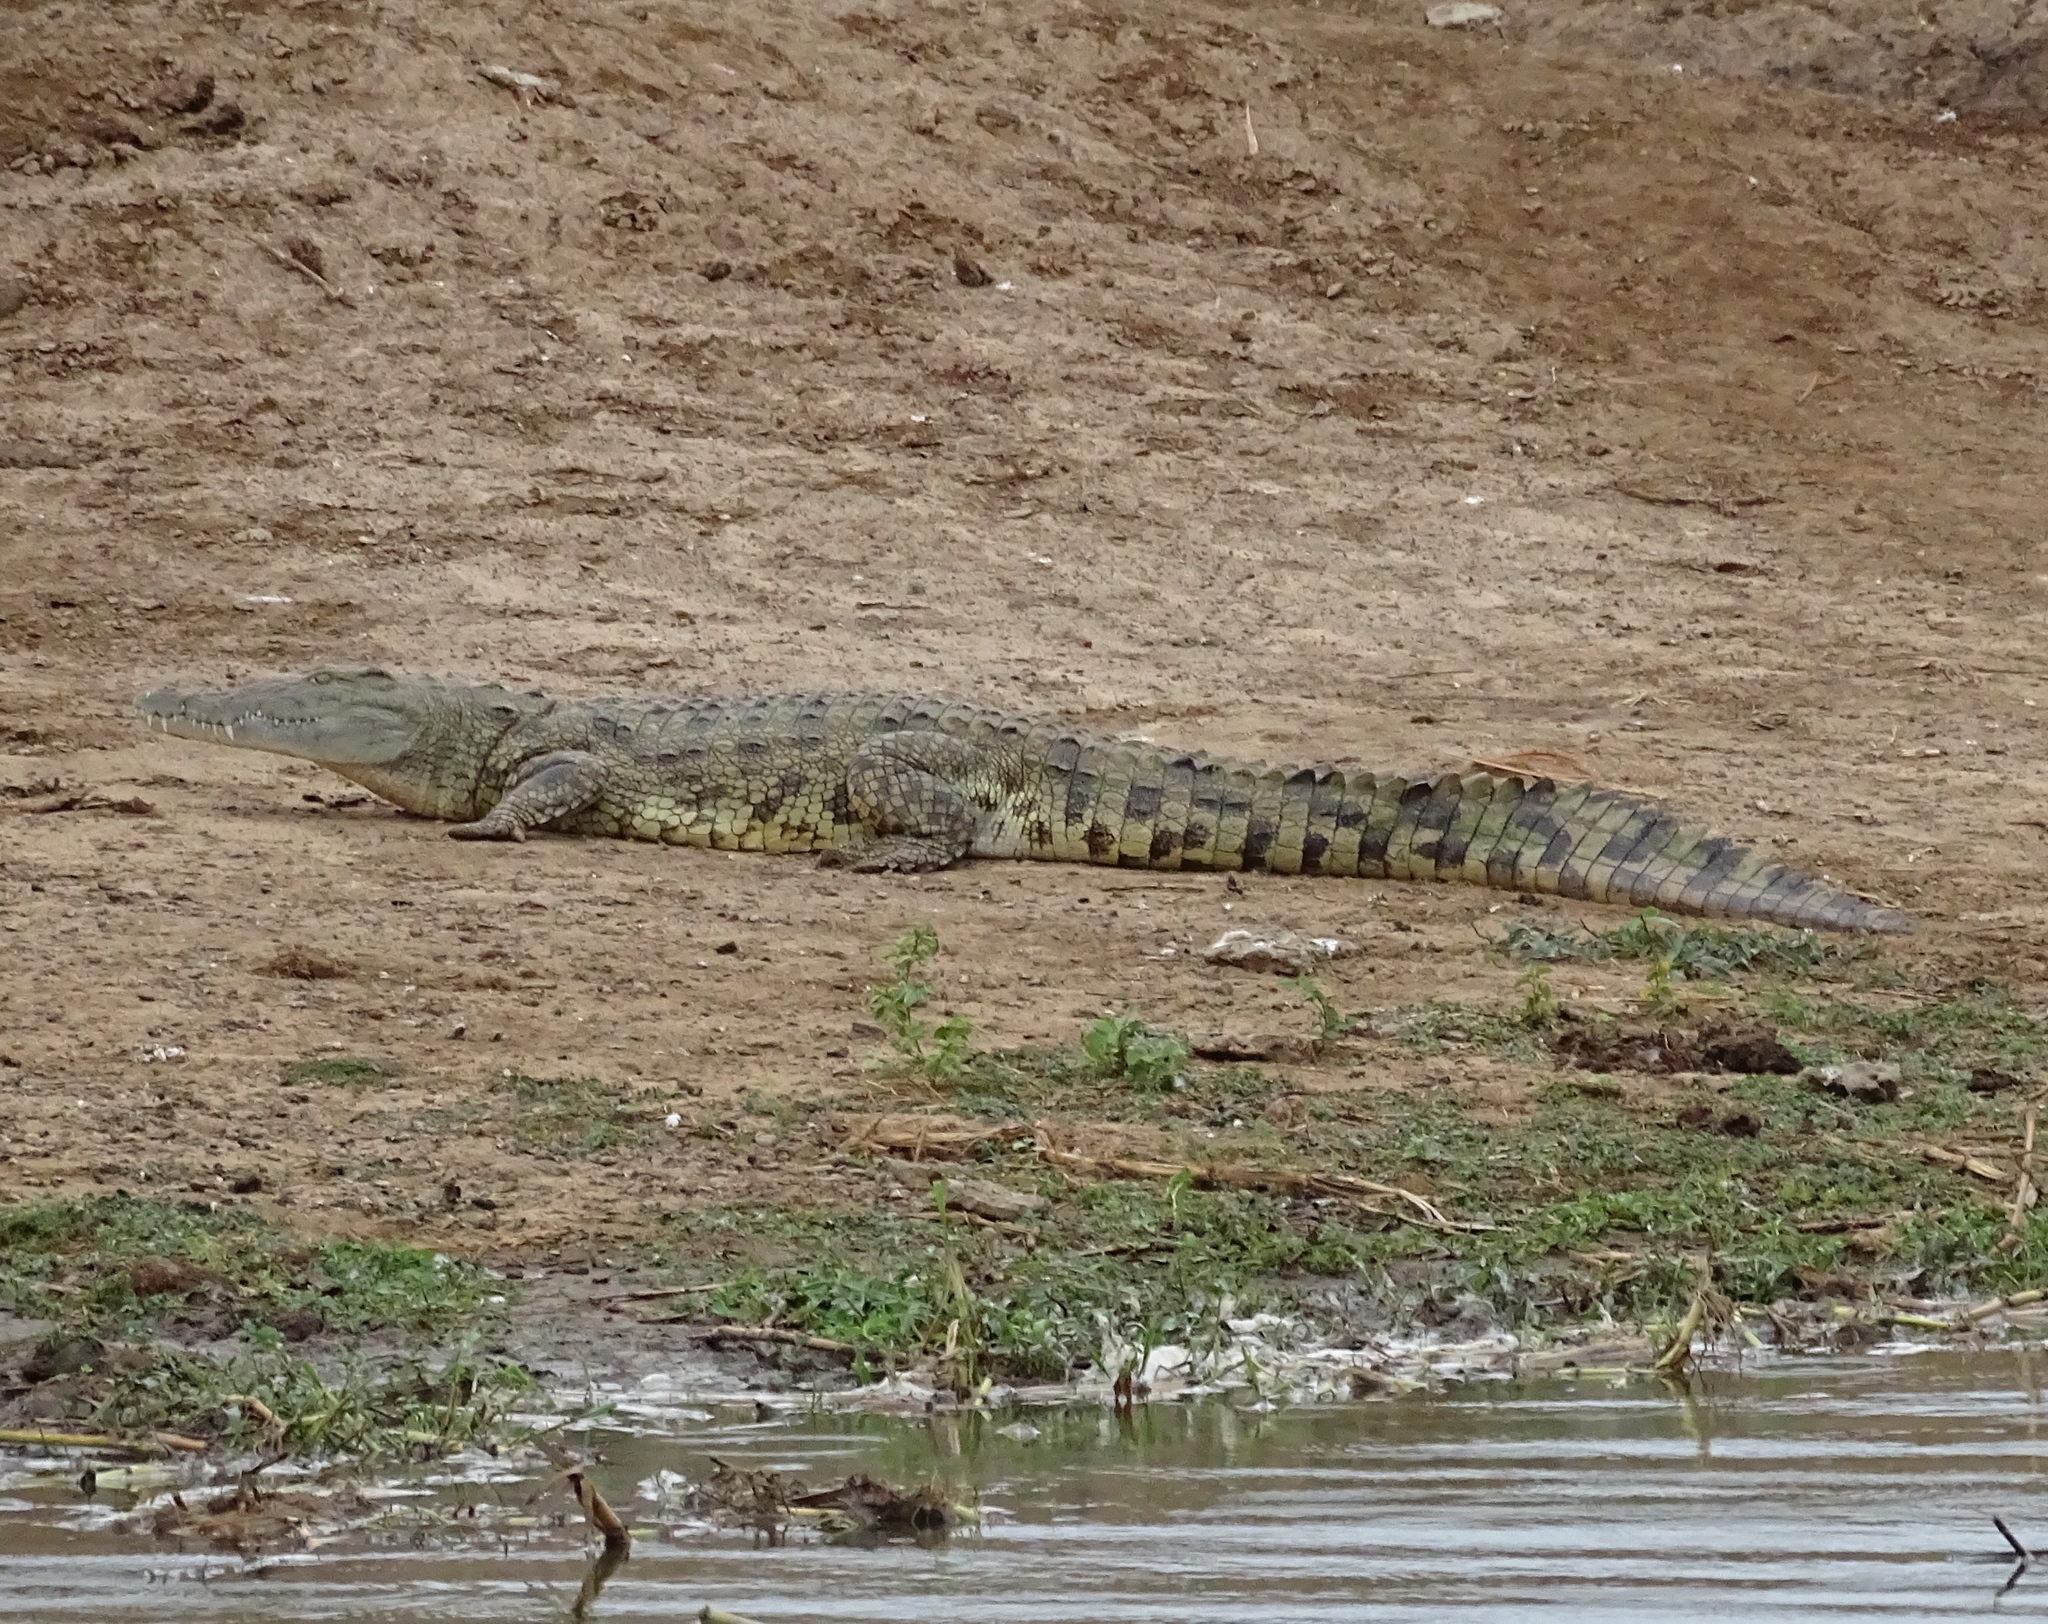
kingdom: Animalia
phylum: Chordata
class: Crocodylia
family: Crocodylidae
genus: Crocodylus
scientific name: Crocodylus niloticus
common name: Nile crocodile
